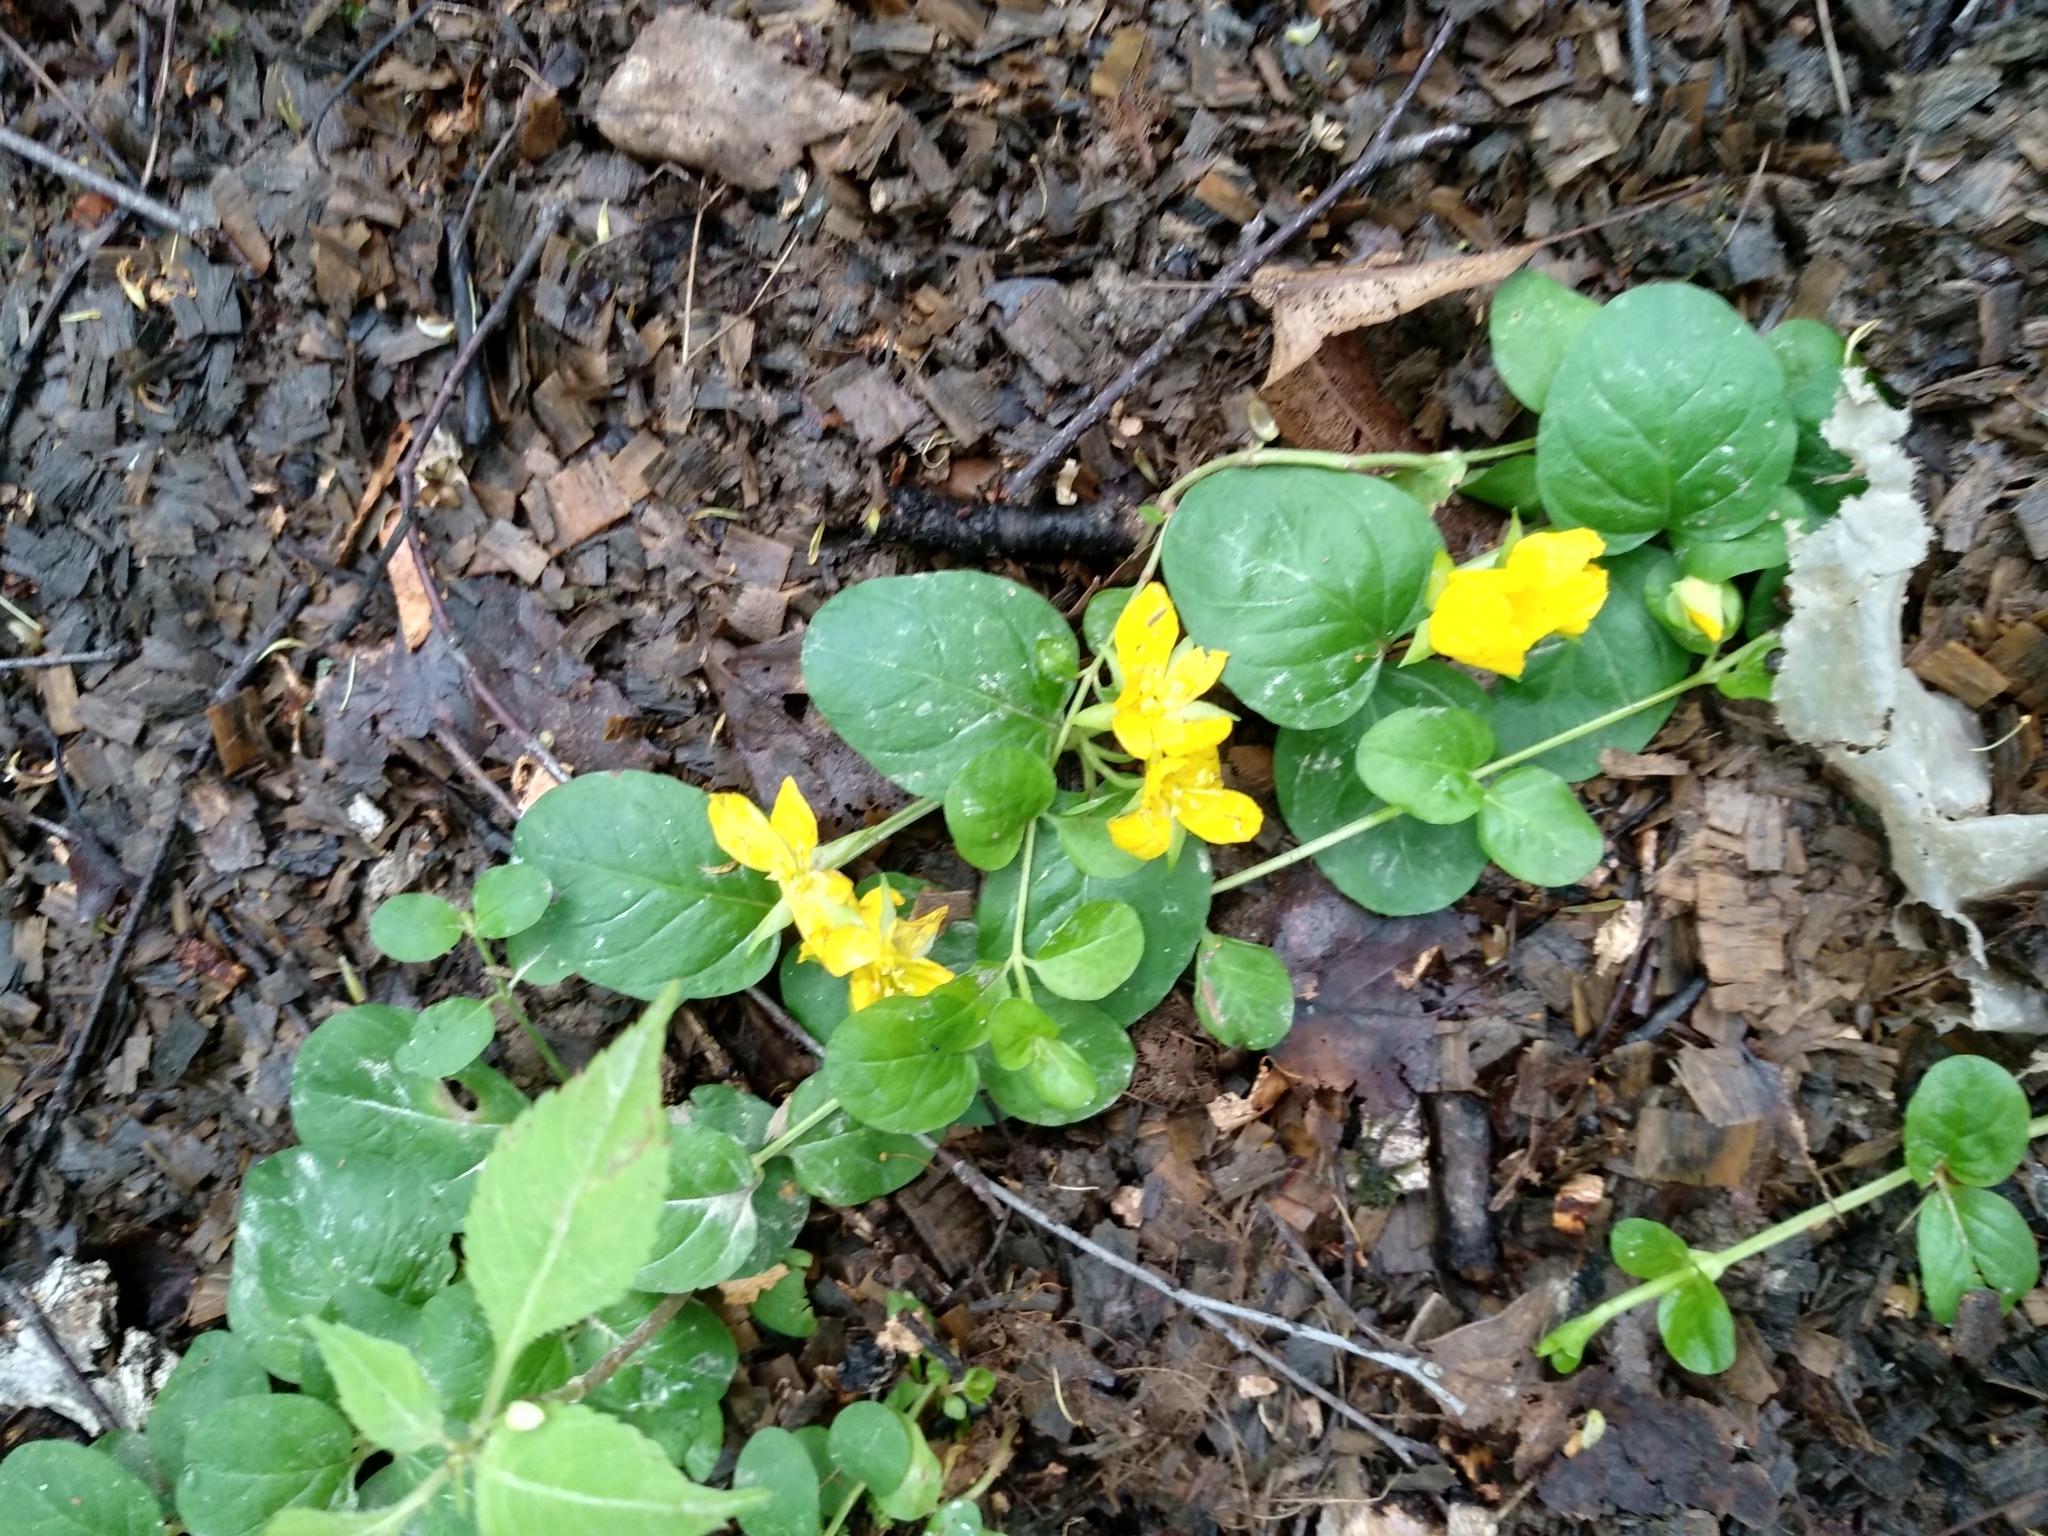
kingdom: Plantae
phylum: Tracheophyta
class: Magnoliopsida
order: Ericales
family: Primulaceae
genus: Lysimachia
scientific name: Lysimachia nummularia
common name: Moneywort
